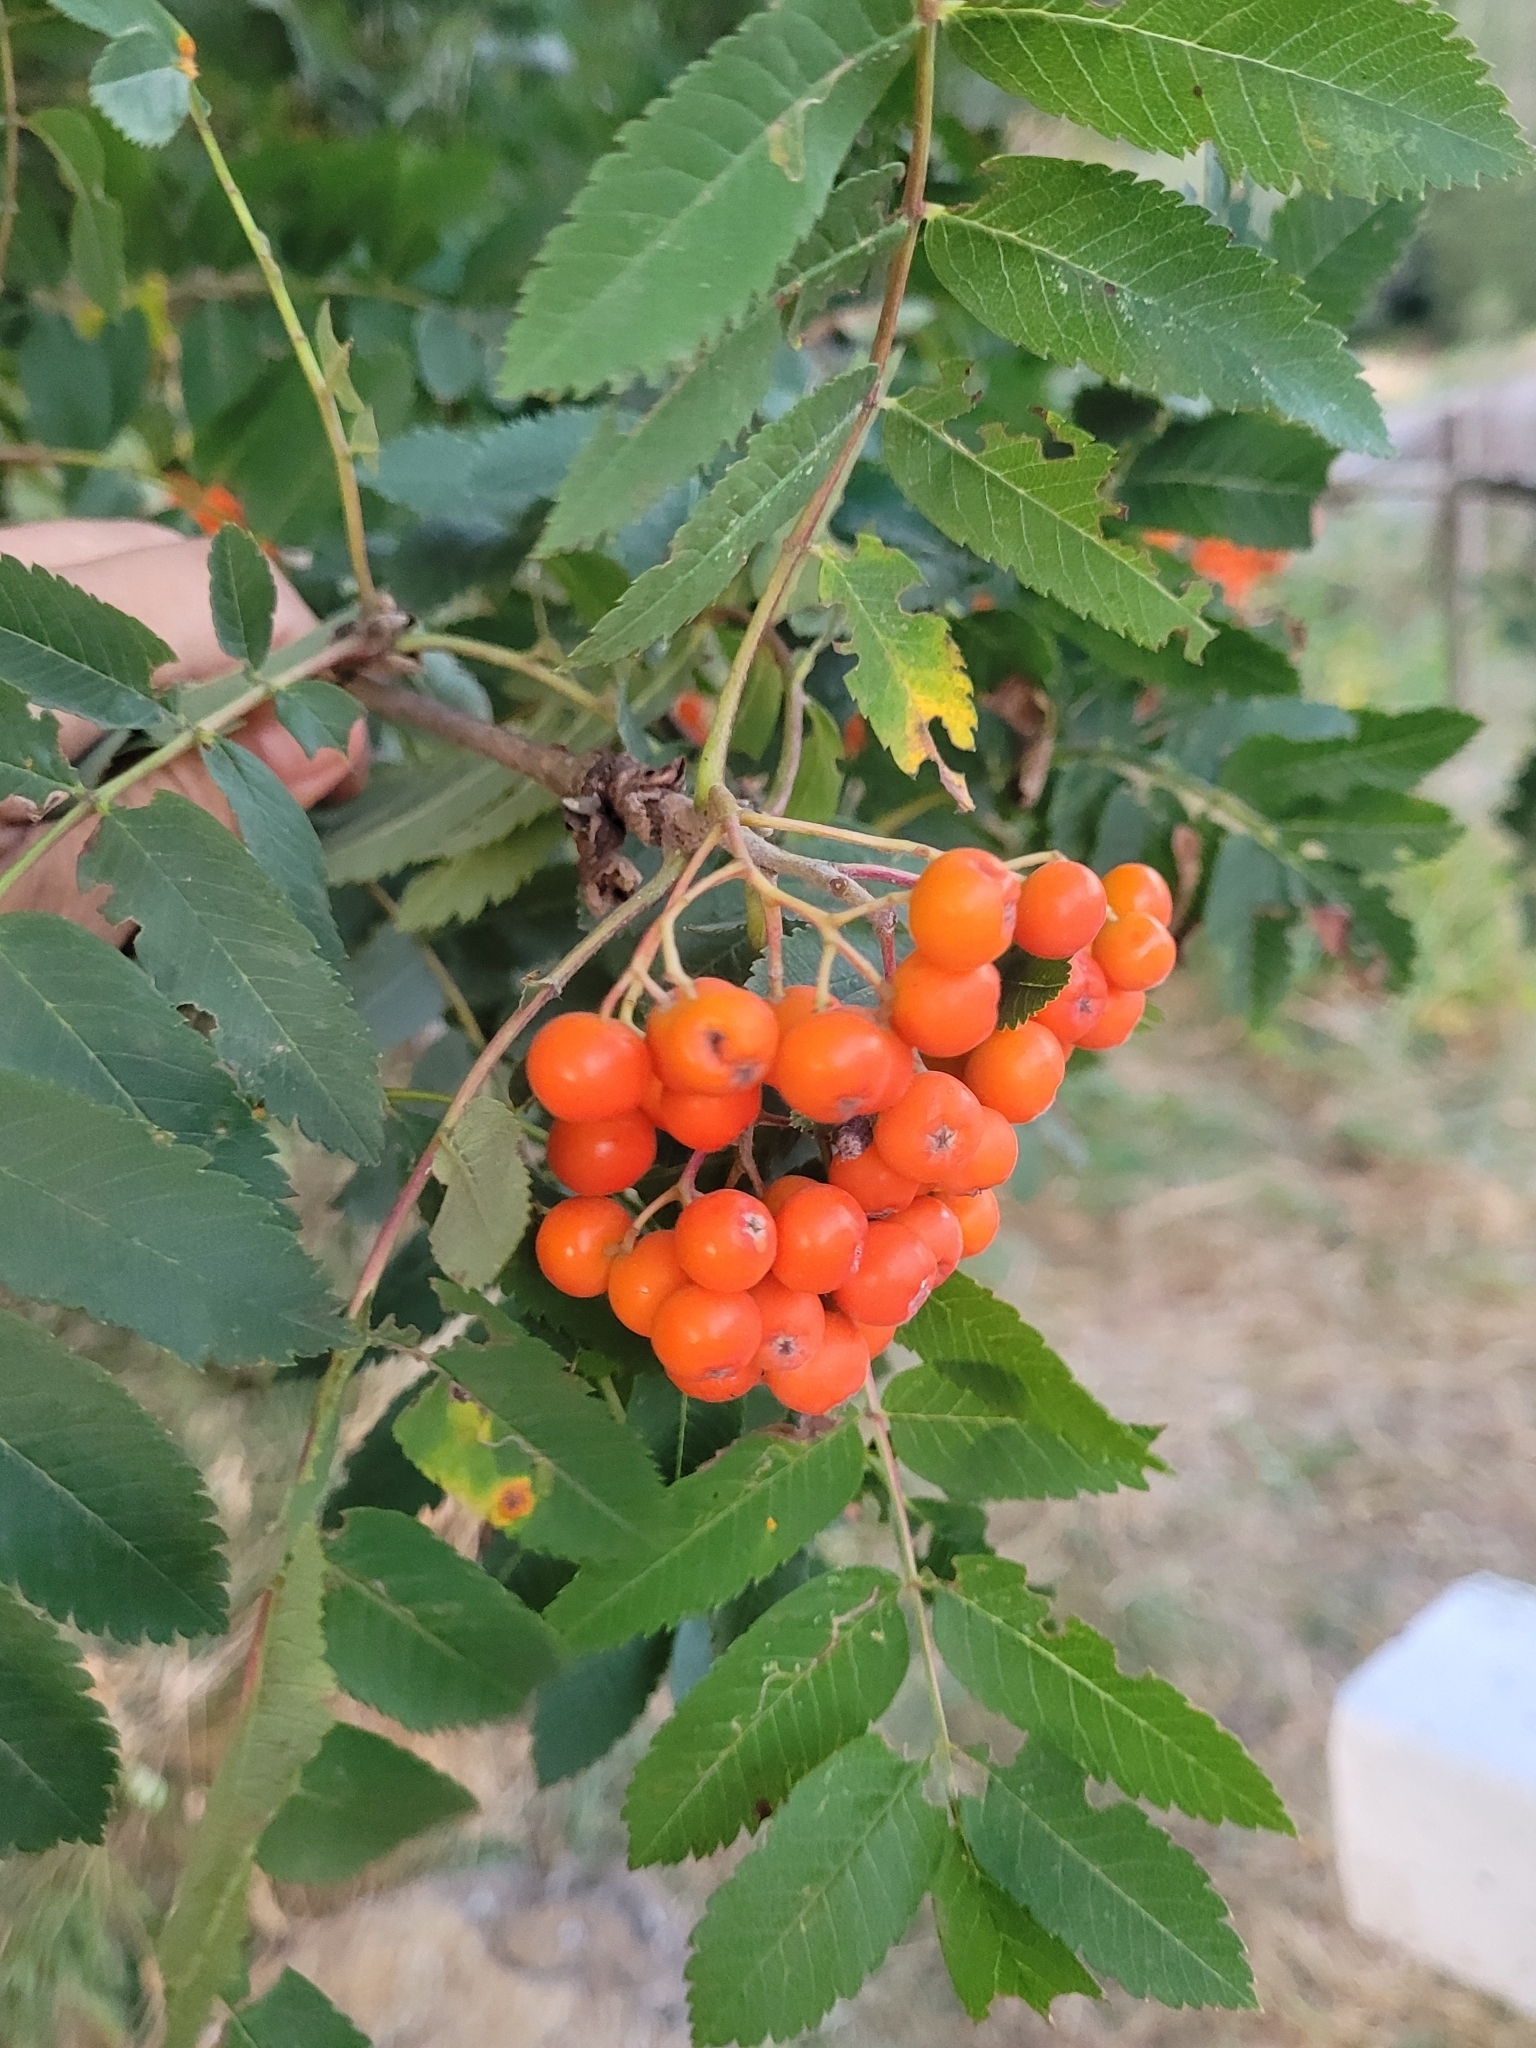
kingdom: Plantae
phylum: Tracheophyta
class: Magnoliopsida
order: Rosales
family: Rosaceae
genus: Sorbus
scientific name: Sorbus aucuparia
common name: Rowan
